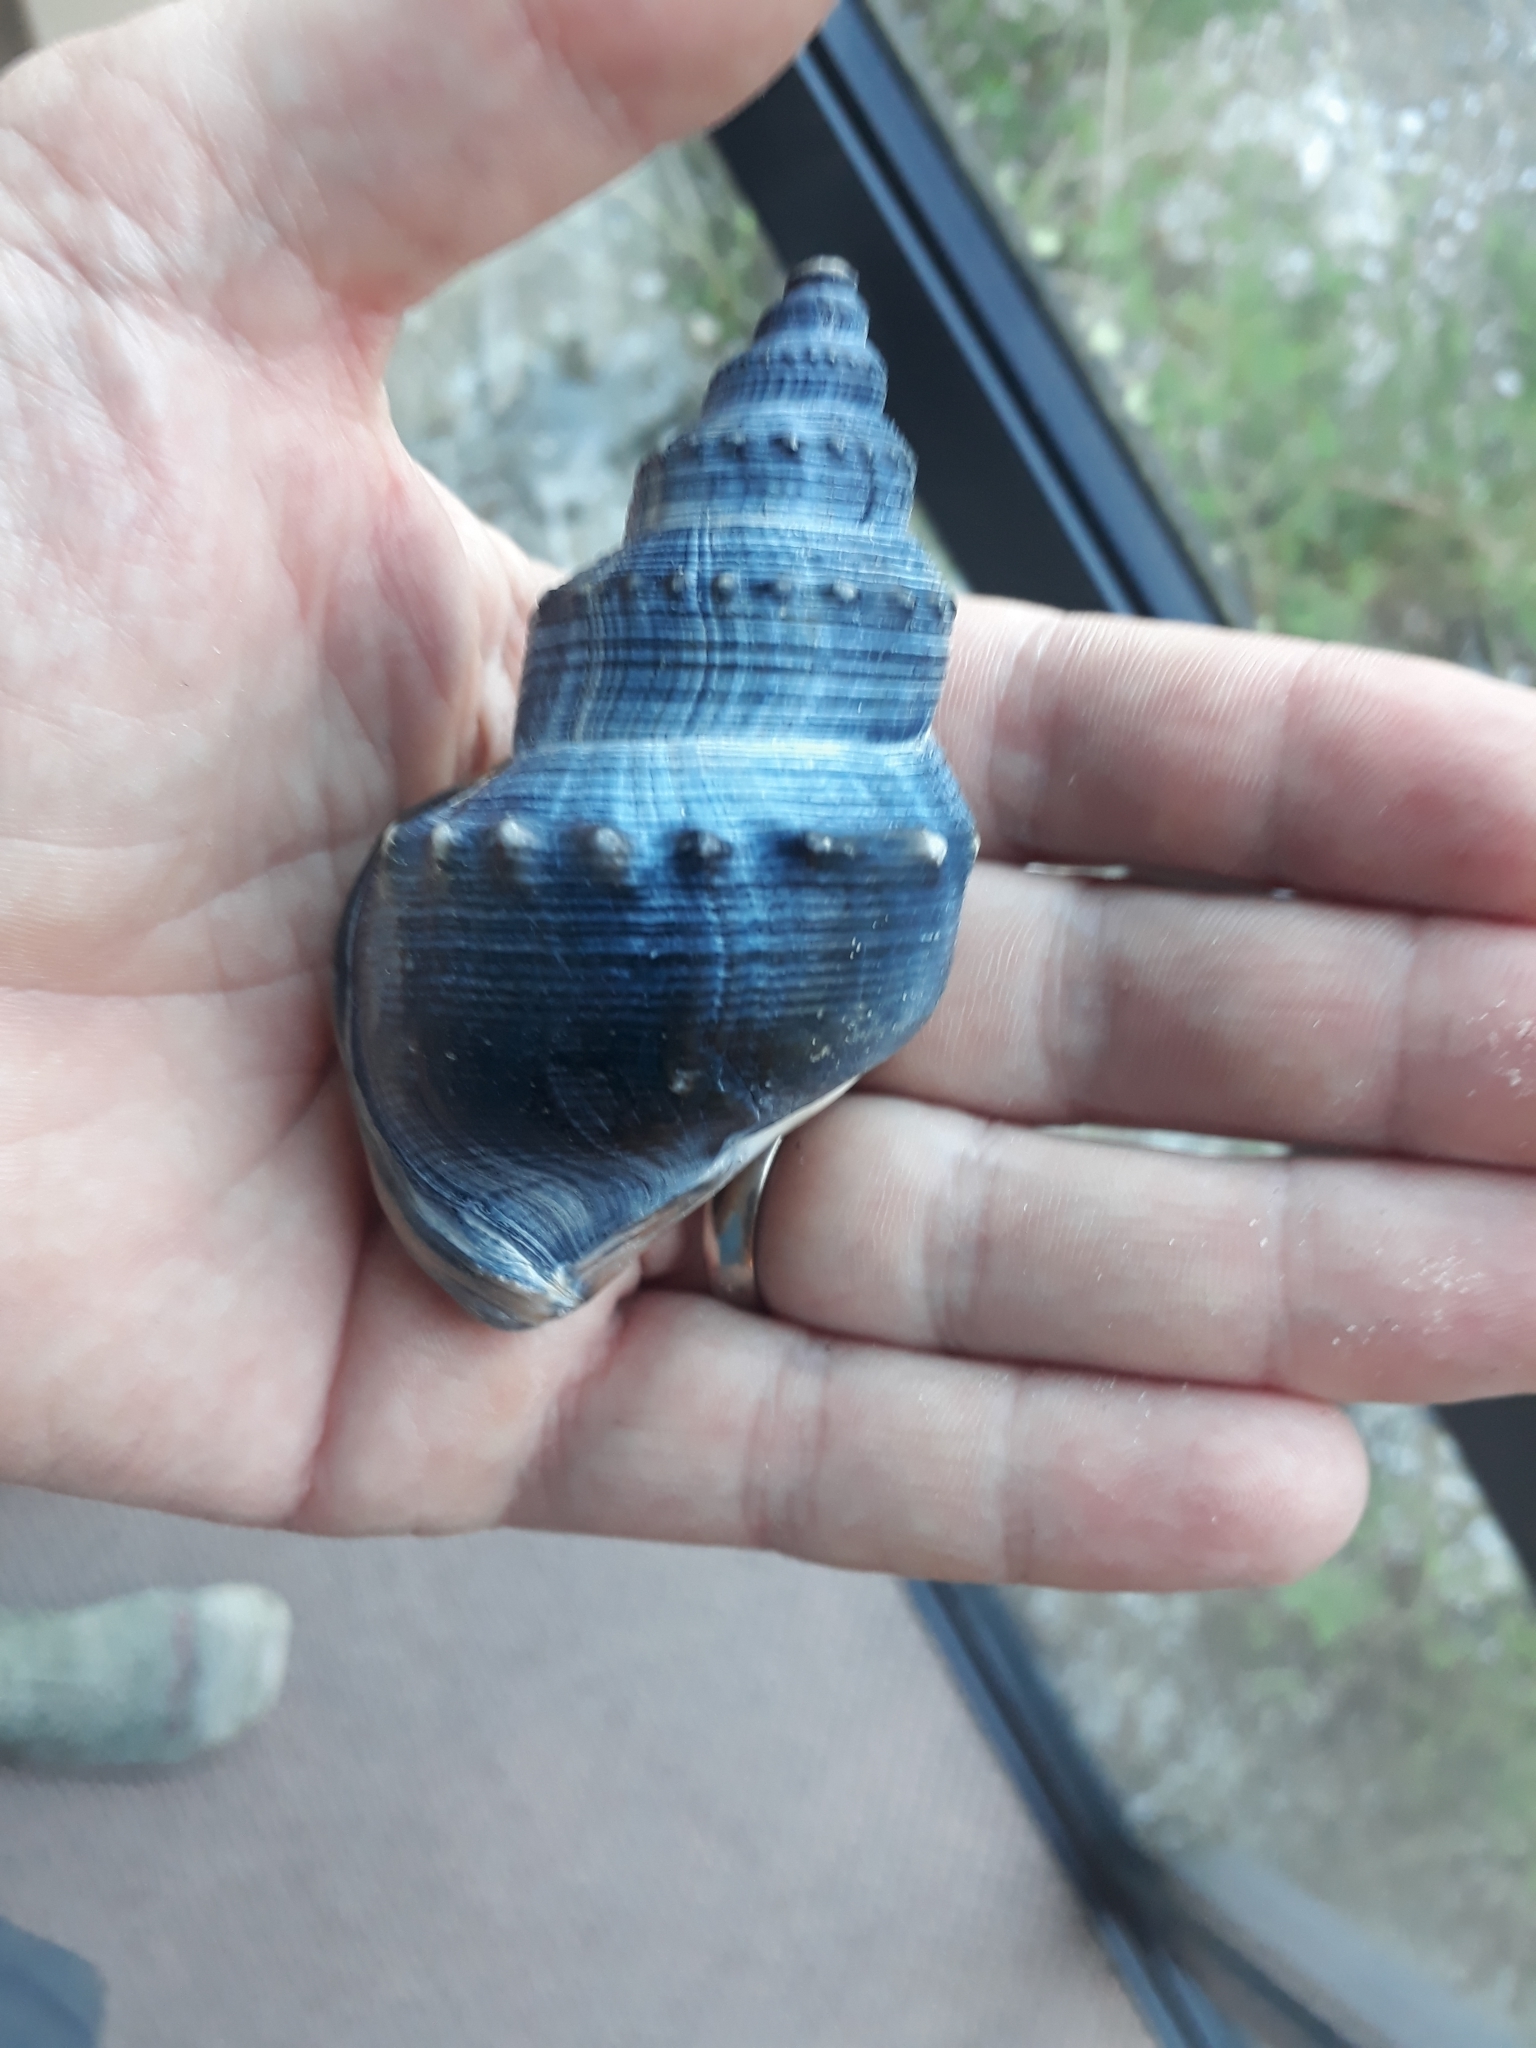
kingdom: Animalia
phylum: Mollusca
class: Gastropoda
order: Littorinimorpha
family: Struthiolariidae
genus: Struthiolaria
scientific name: Struthiolaria papulosa
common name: Large ostrich foot
